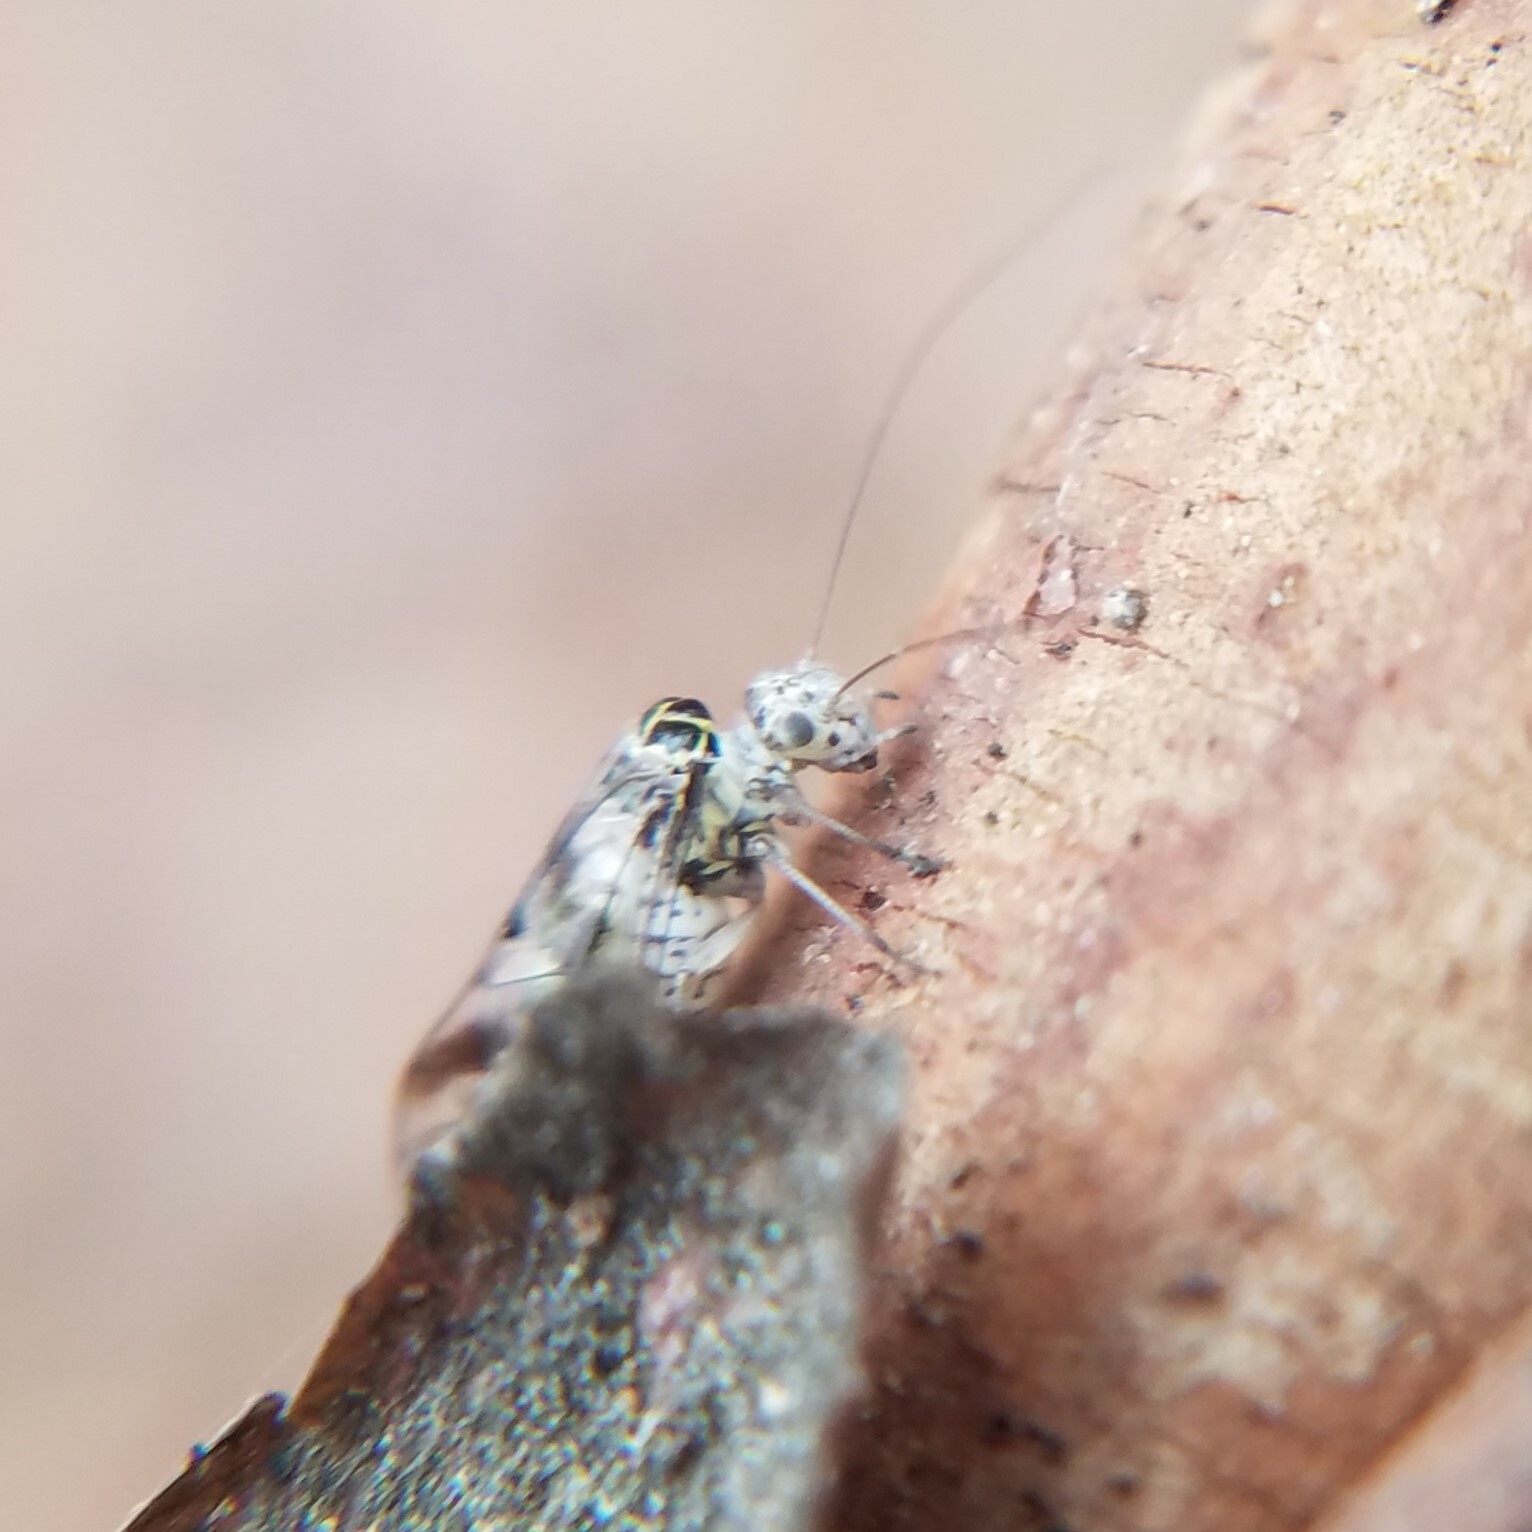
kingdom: Animalia
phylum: Arthropoda
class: Insecta
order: Psocodea
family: Psocidae
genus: Metylophorus
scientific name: Metylophorus novaescotiae
